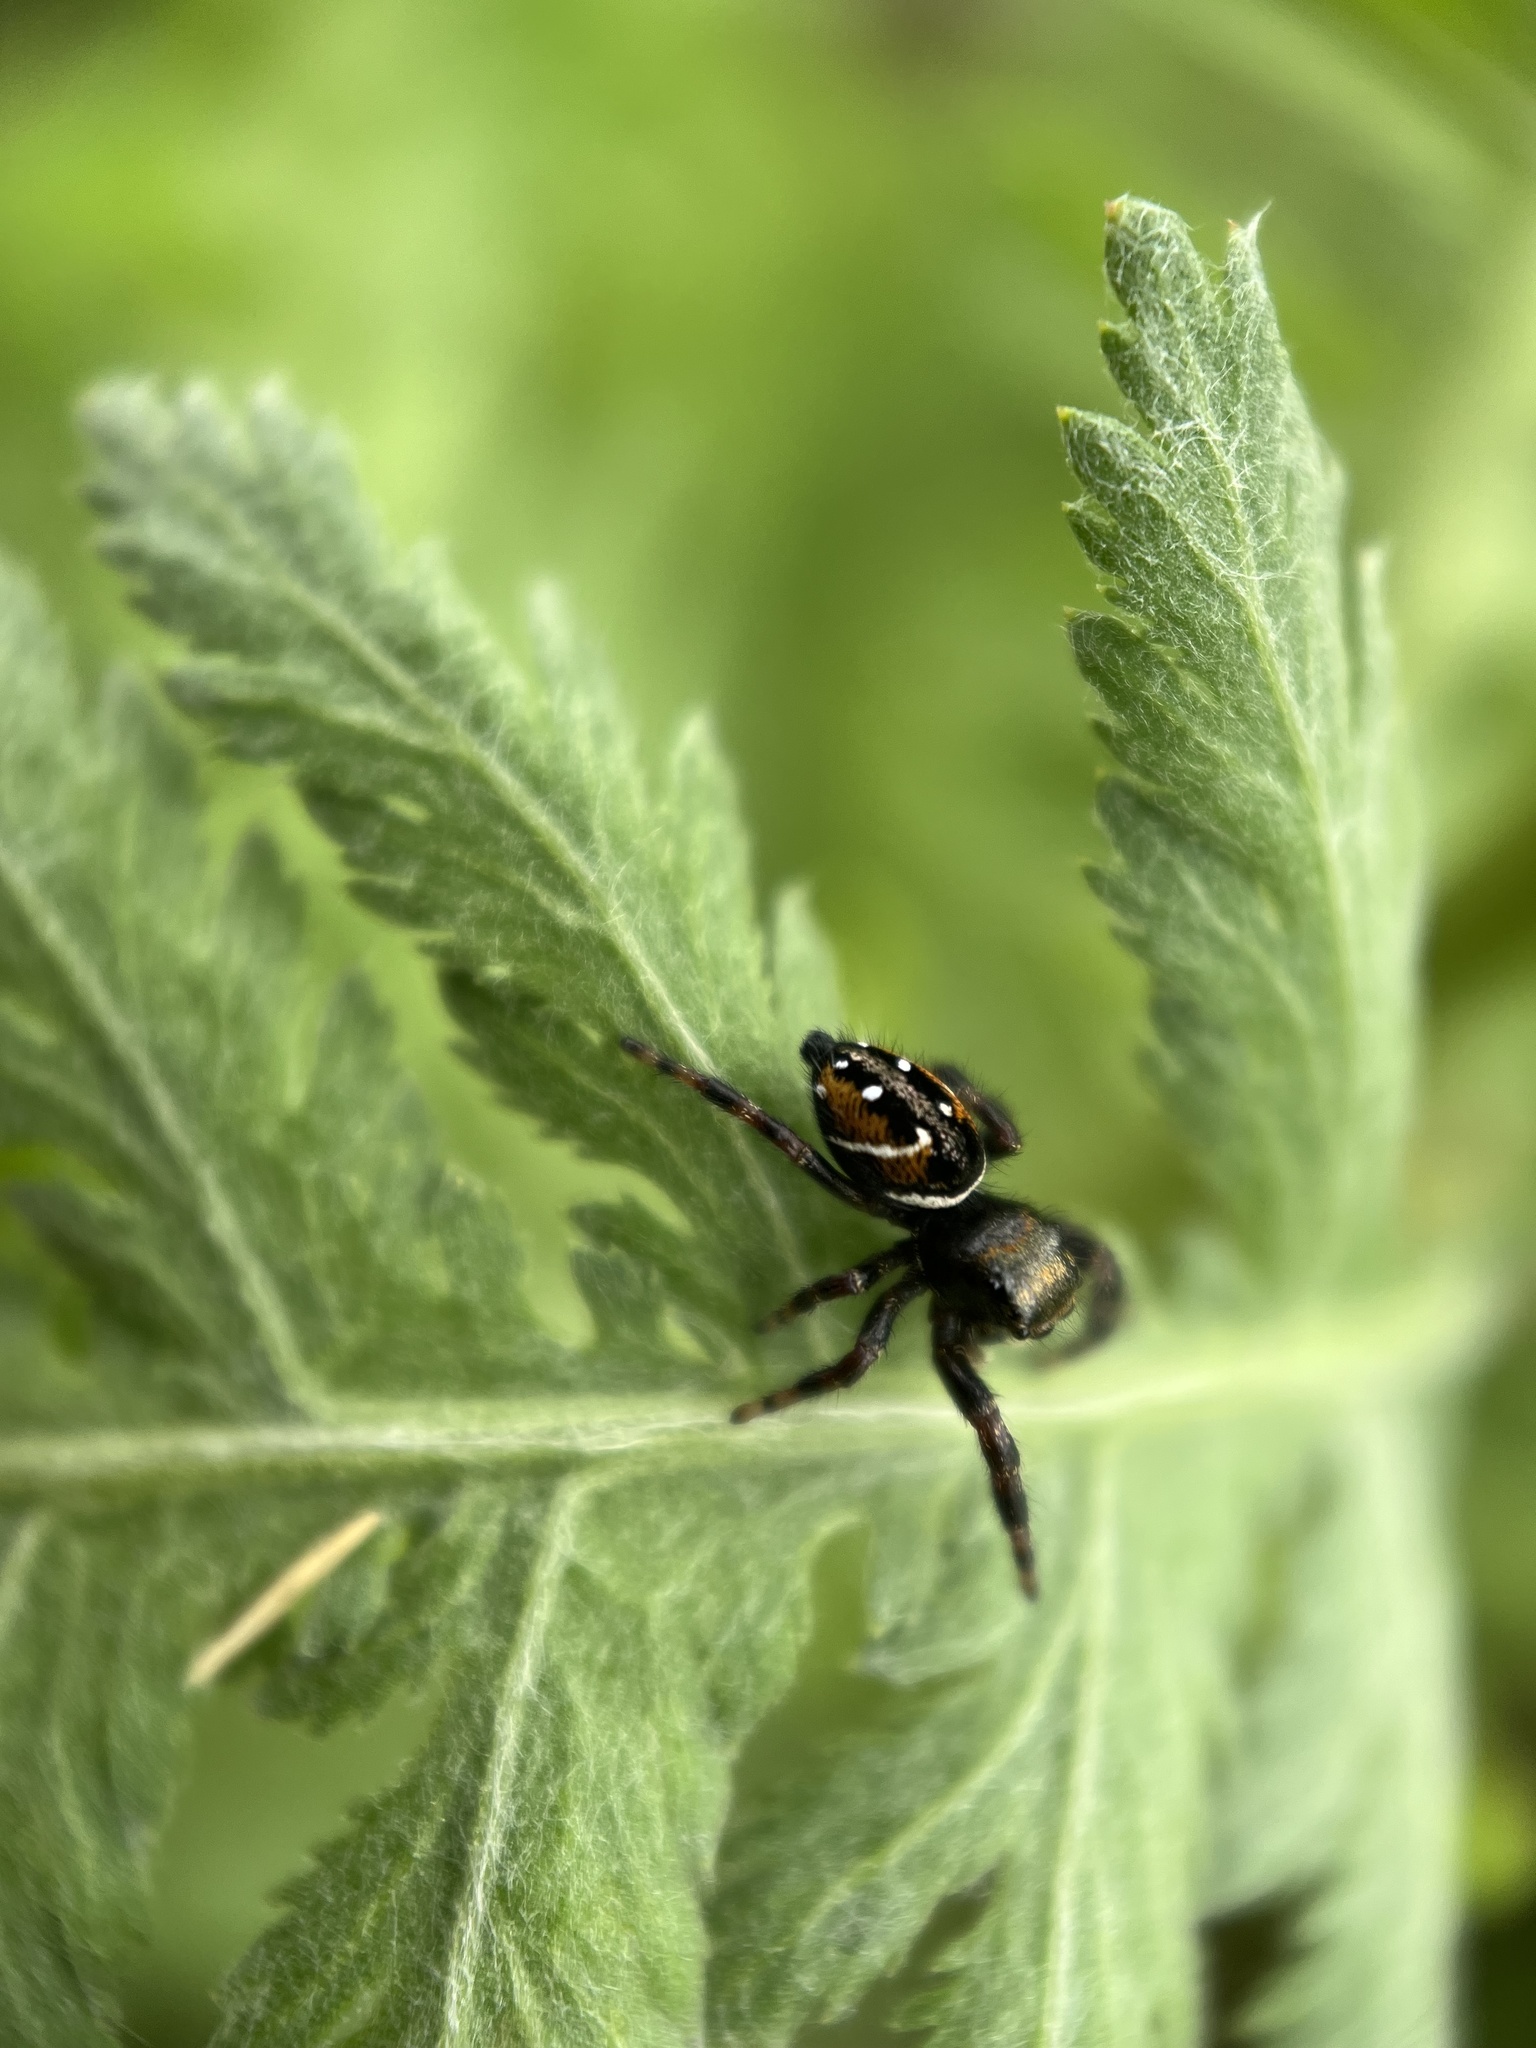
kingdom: Animalia
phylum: Arthropoda
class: Arachnida
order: Araneae
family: Salticidae
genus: Phidippus
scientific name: Phidippus clarus
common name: Brilliant jumping spider
